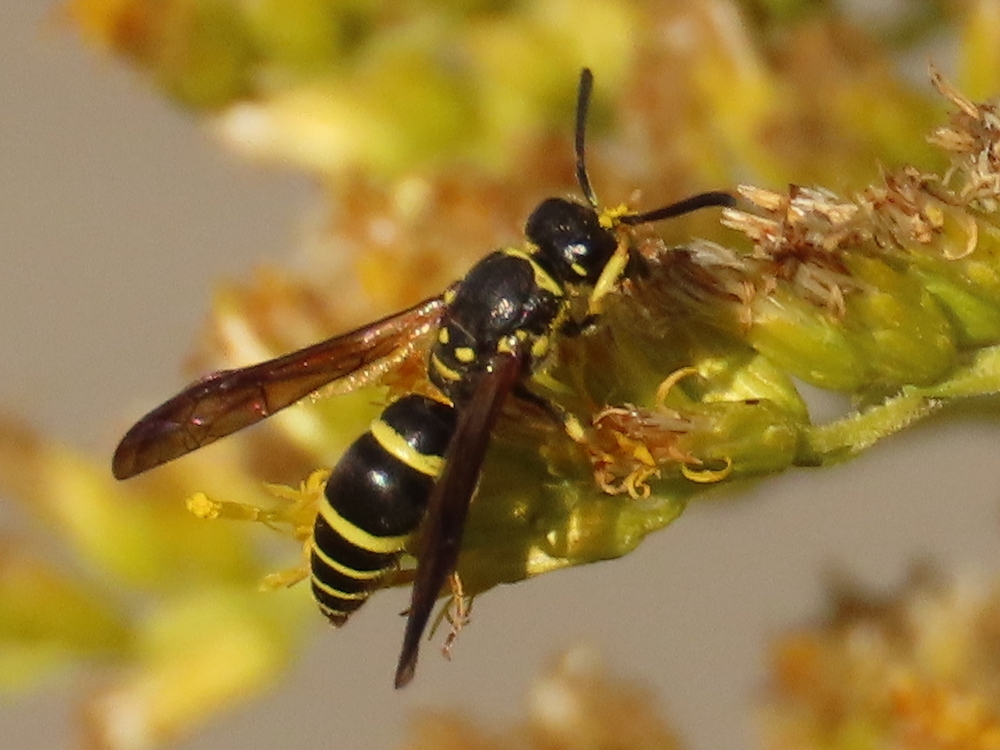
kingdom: Animalia
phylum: Arthropoda
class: Insecta
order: Hymenoptera
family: Vespidae
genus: Ancistrocerus
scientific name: Ancistrocerus adiabatus
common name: Bramble mason wasp
